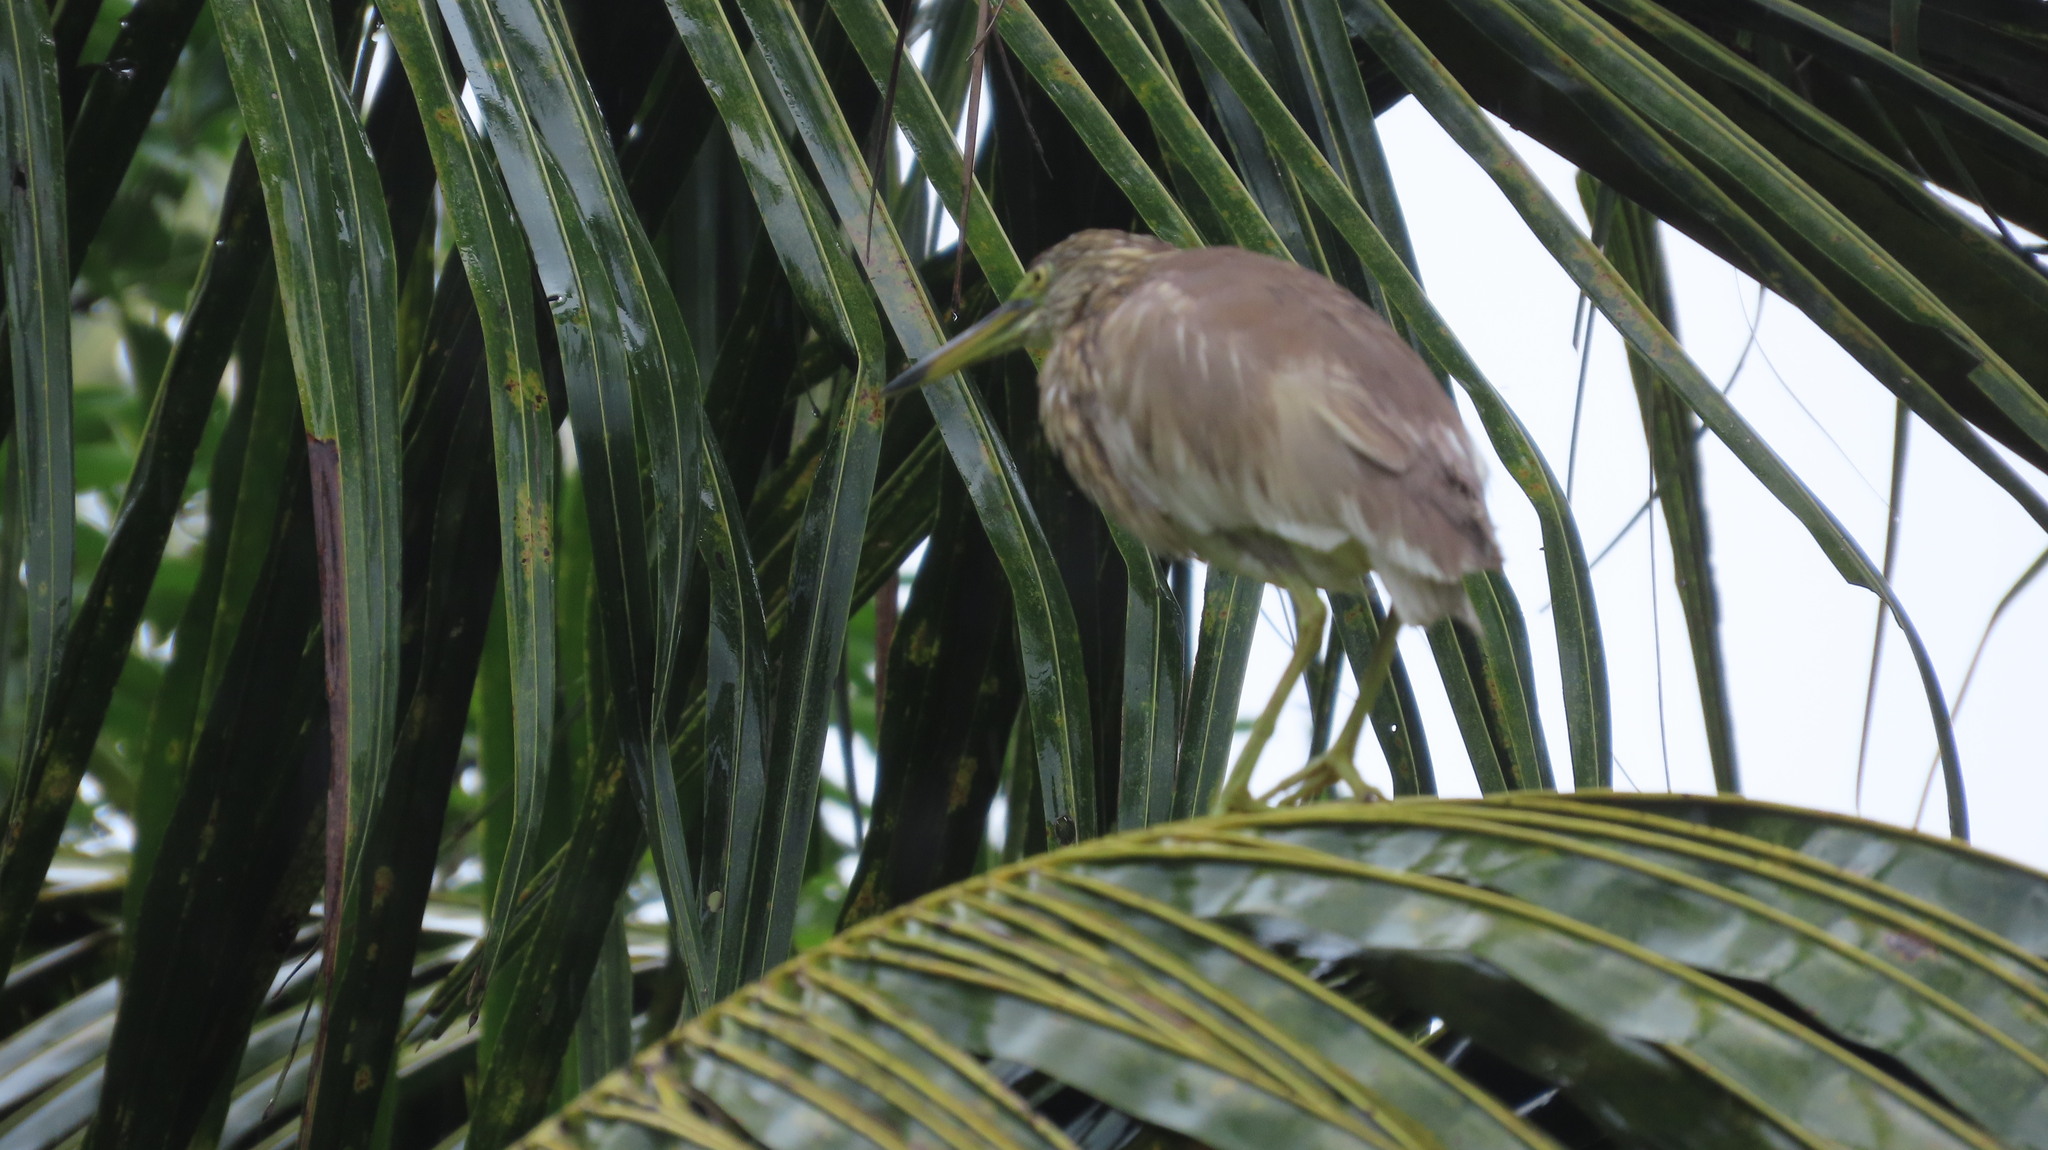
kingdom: Animalia
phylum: Chordata
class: Aves
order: Pelecaniformes
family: Ardeidae
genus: Ardeola
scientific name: Ardeola grayii
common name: Indian pond heron
